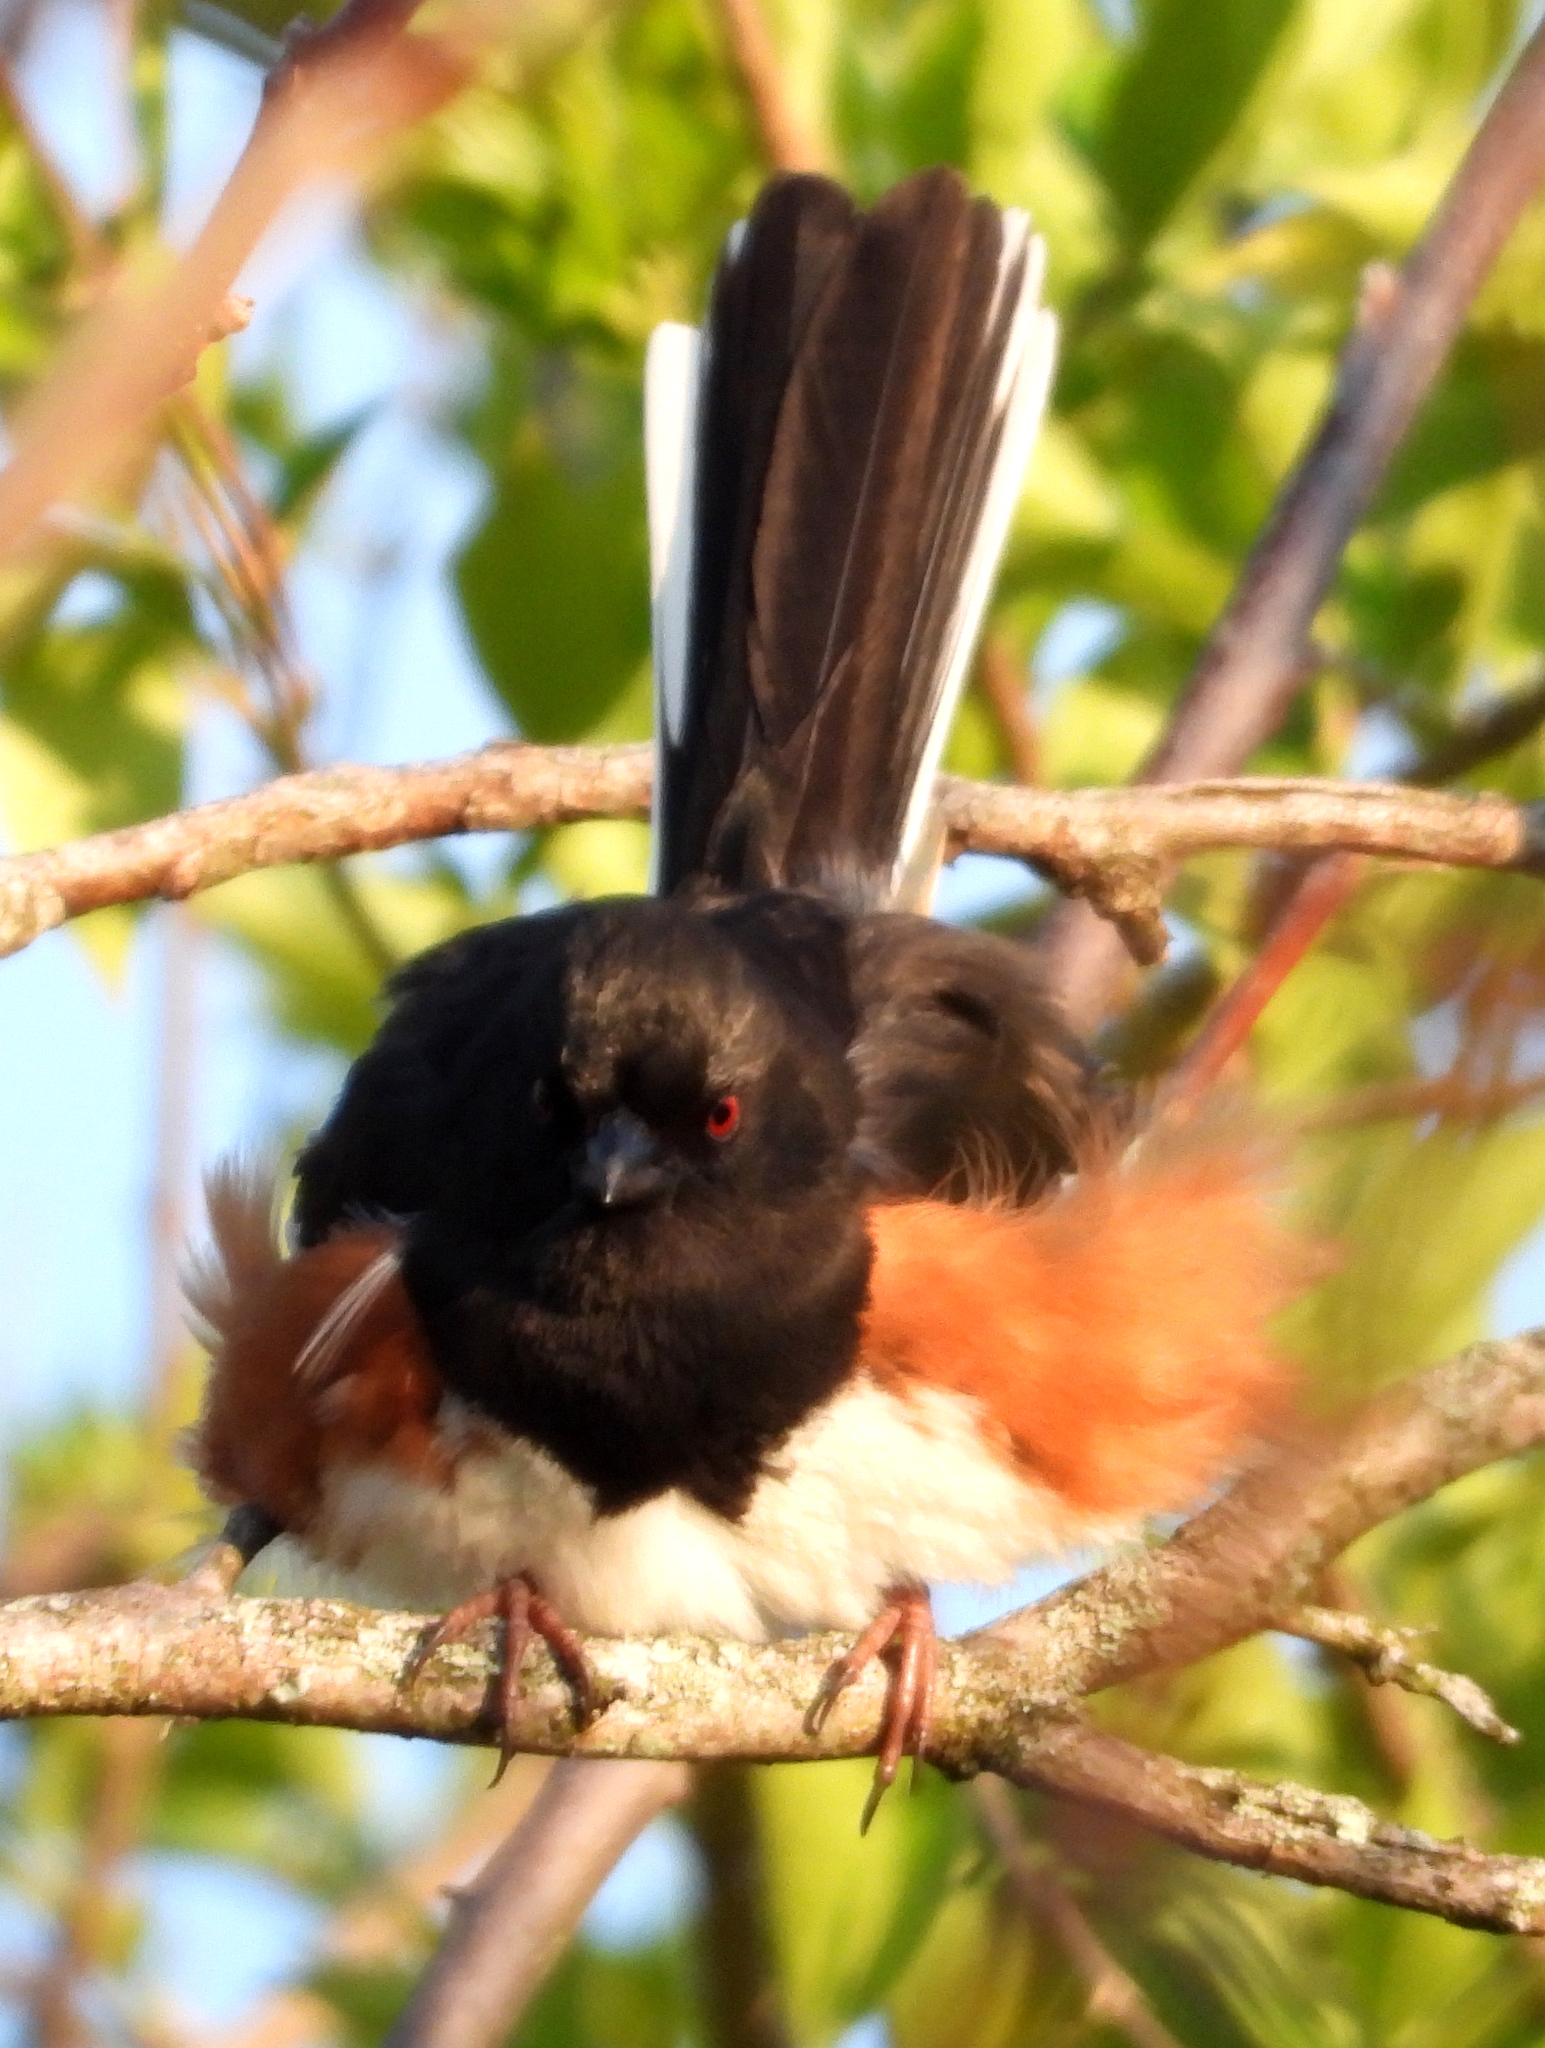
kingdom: Animalia
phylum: Chordata
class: Aves
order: Passeriformes
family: Passerellidae
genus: Pipilo
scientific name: Pipilo erythrophthalmus
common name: Eastern towhee
